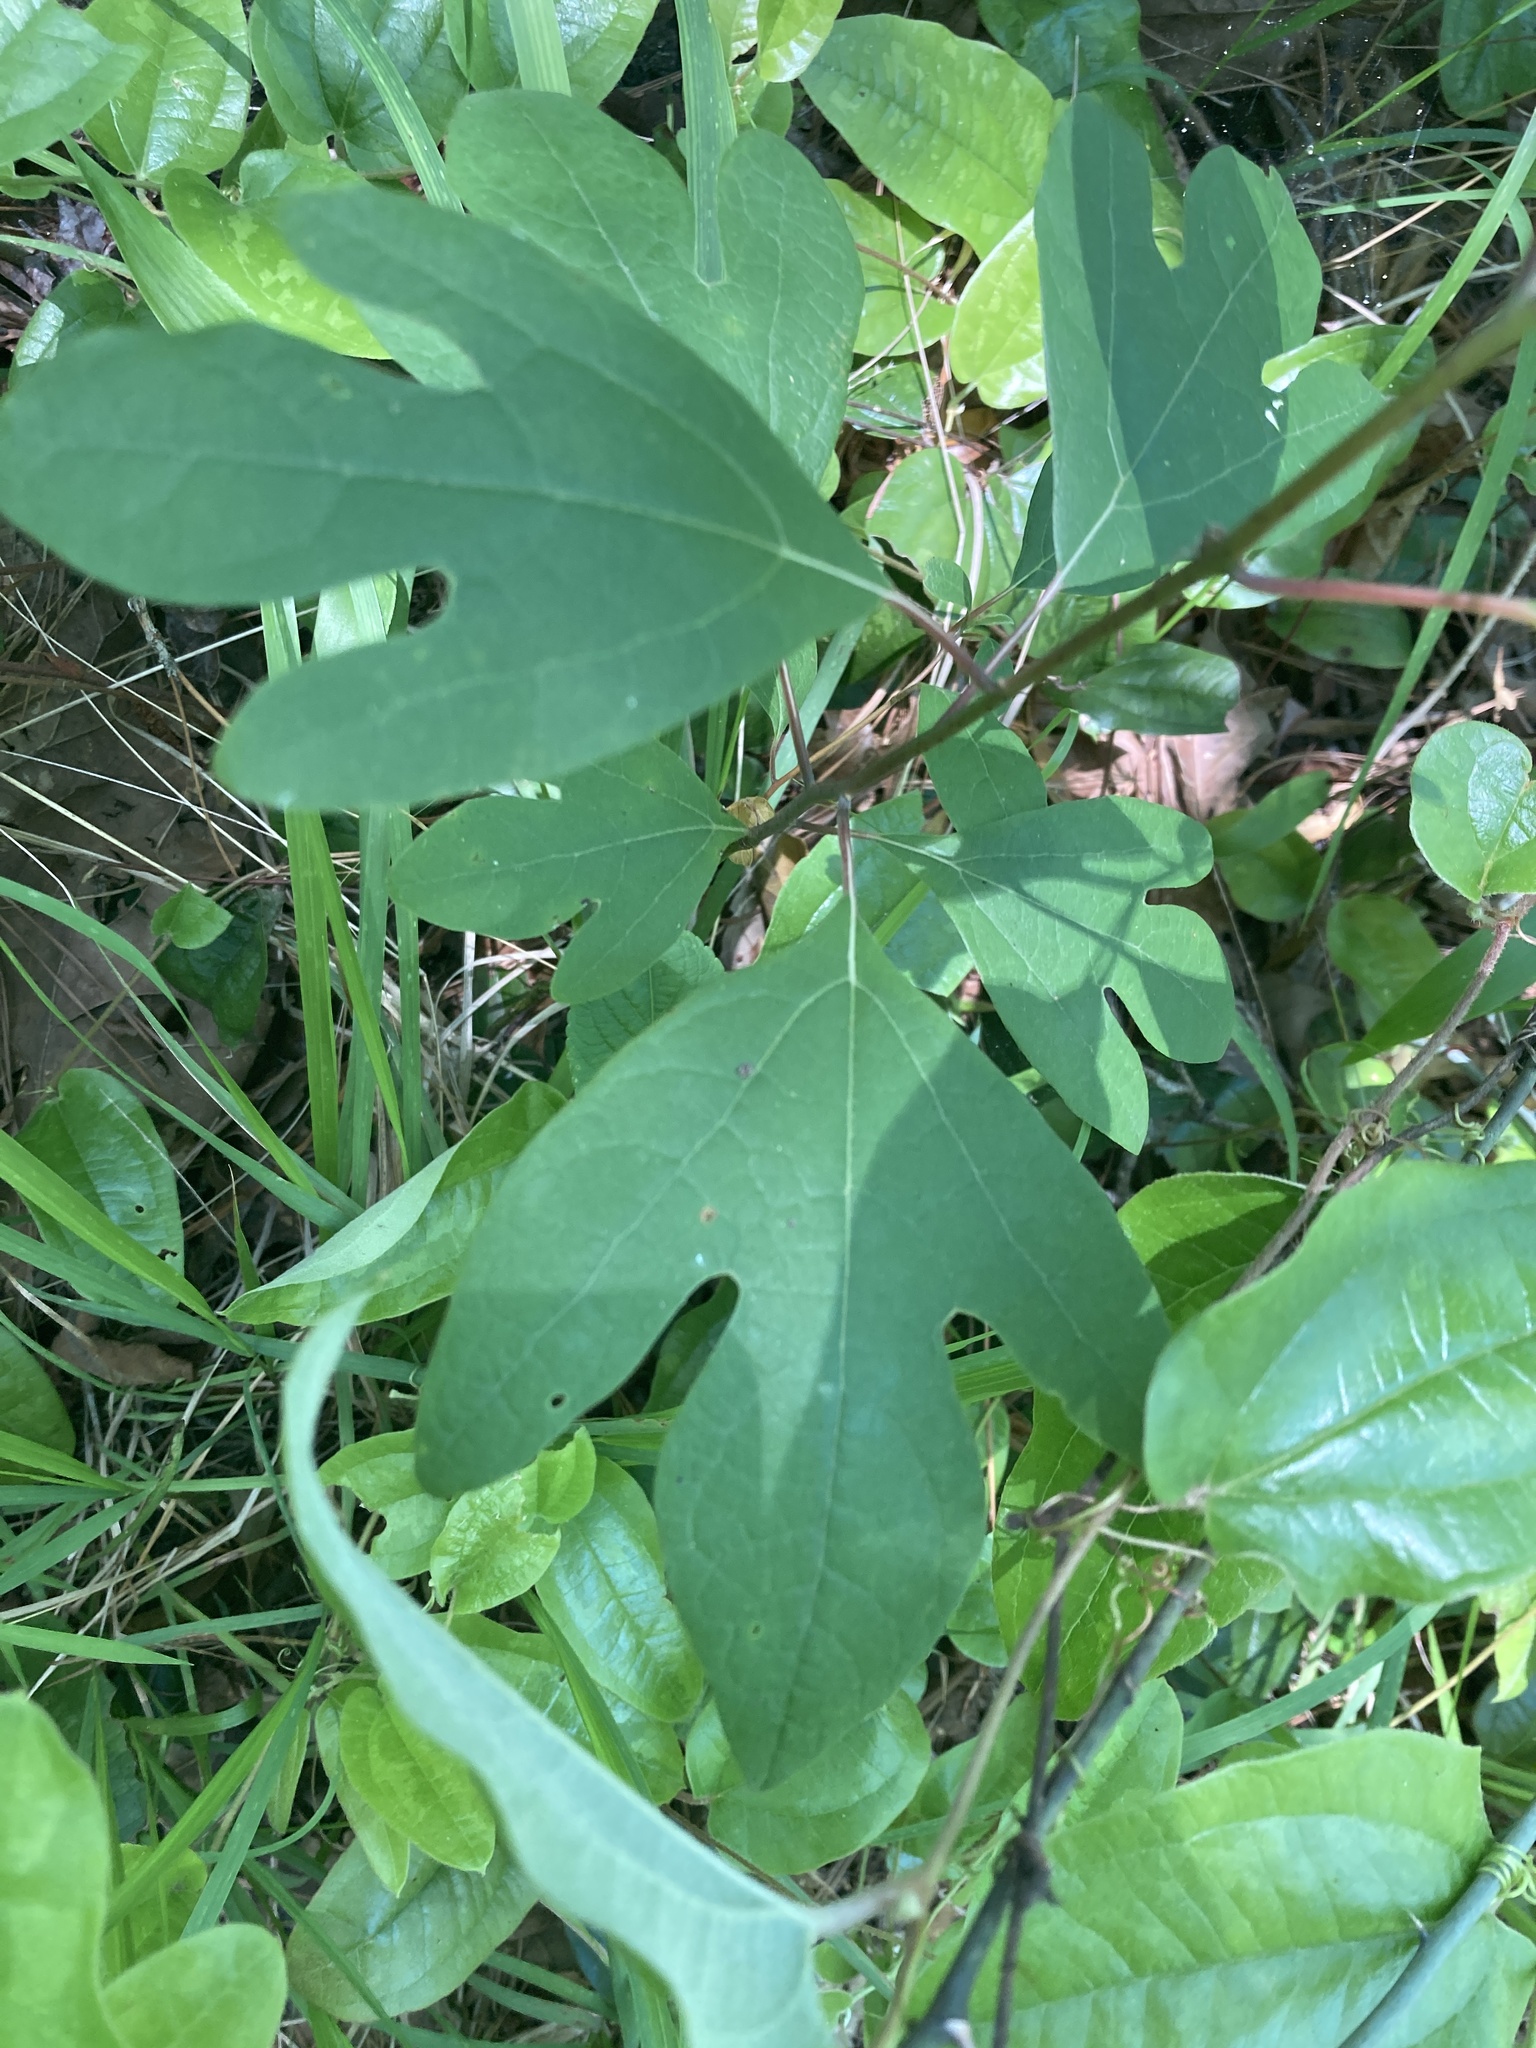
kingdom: Plantae
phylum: Tracheophyta
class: Magnoliopsida
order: Laurales
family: Lauraceae
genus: Sassafras
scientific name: Sassafras albidum
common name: Sassafras
